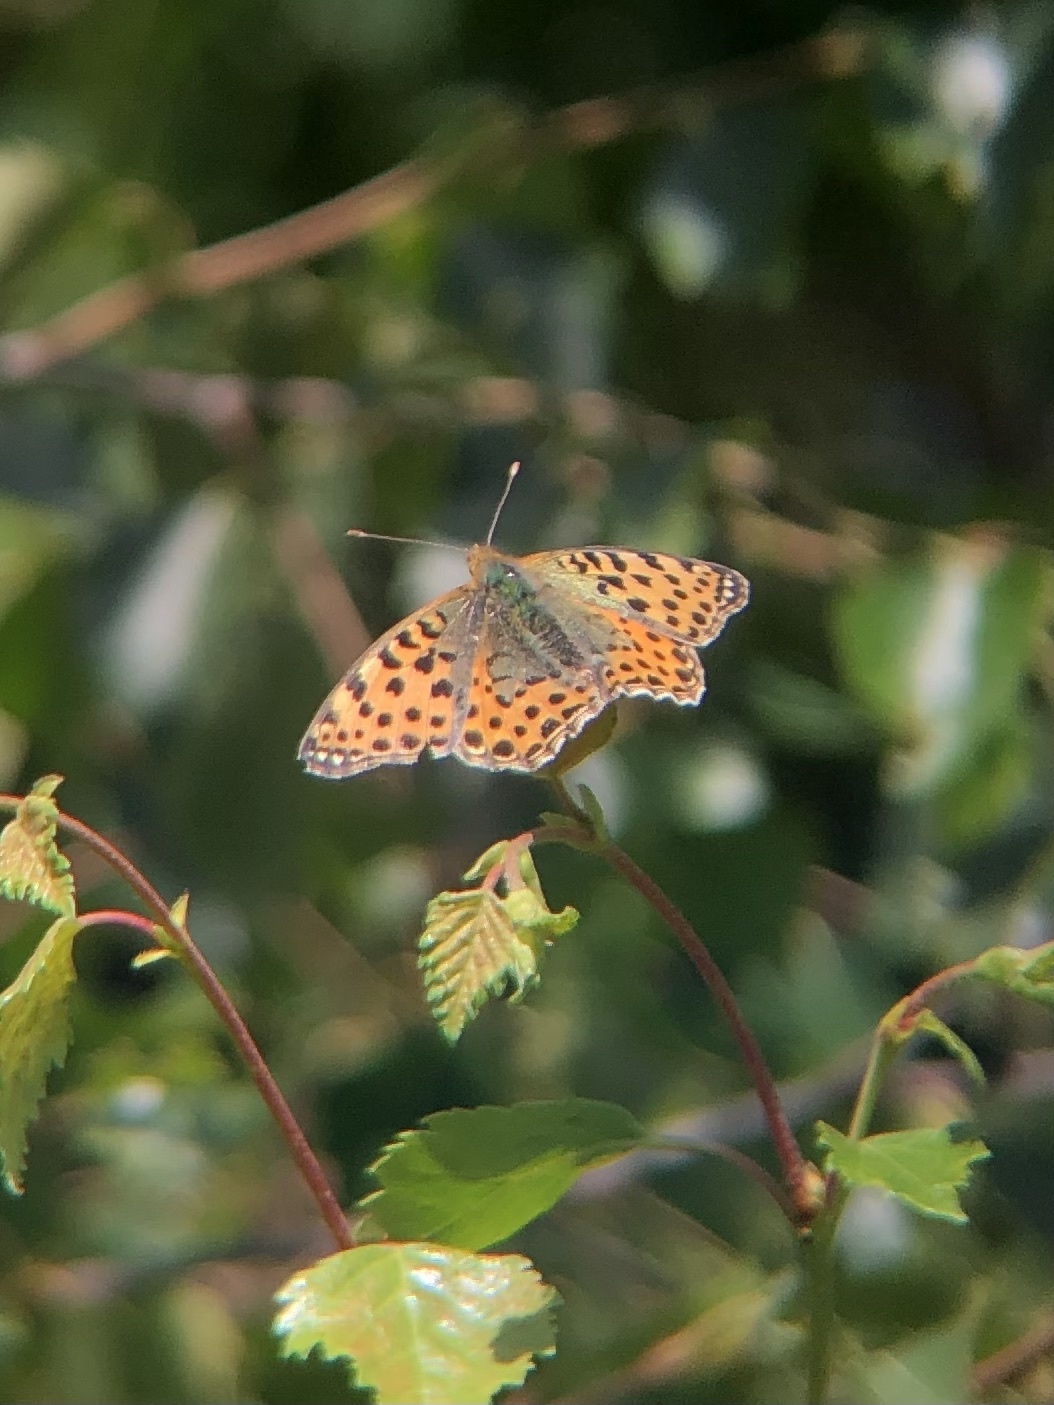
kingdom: Animalia
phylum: Arthropoda
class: Insecta
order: Lepidoptera
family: Nymphalidae
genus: Issoria
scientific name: Issoria lathonia
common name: Queen of spain fritillary
